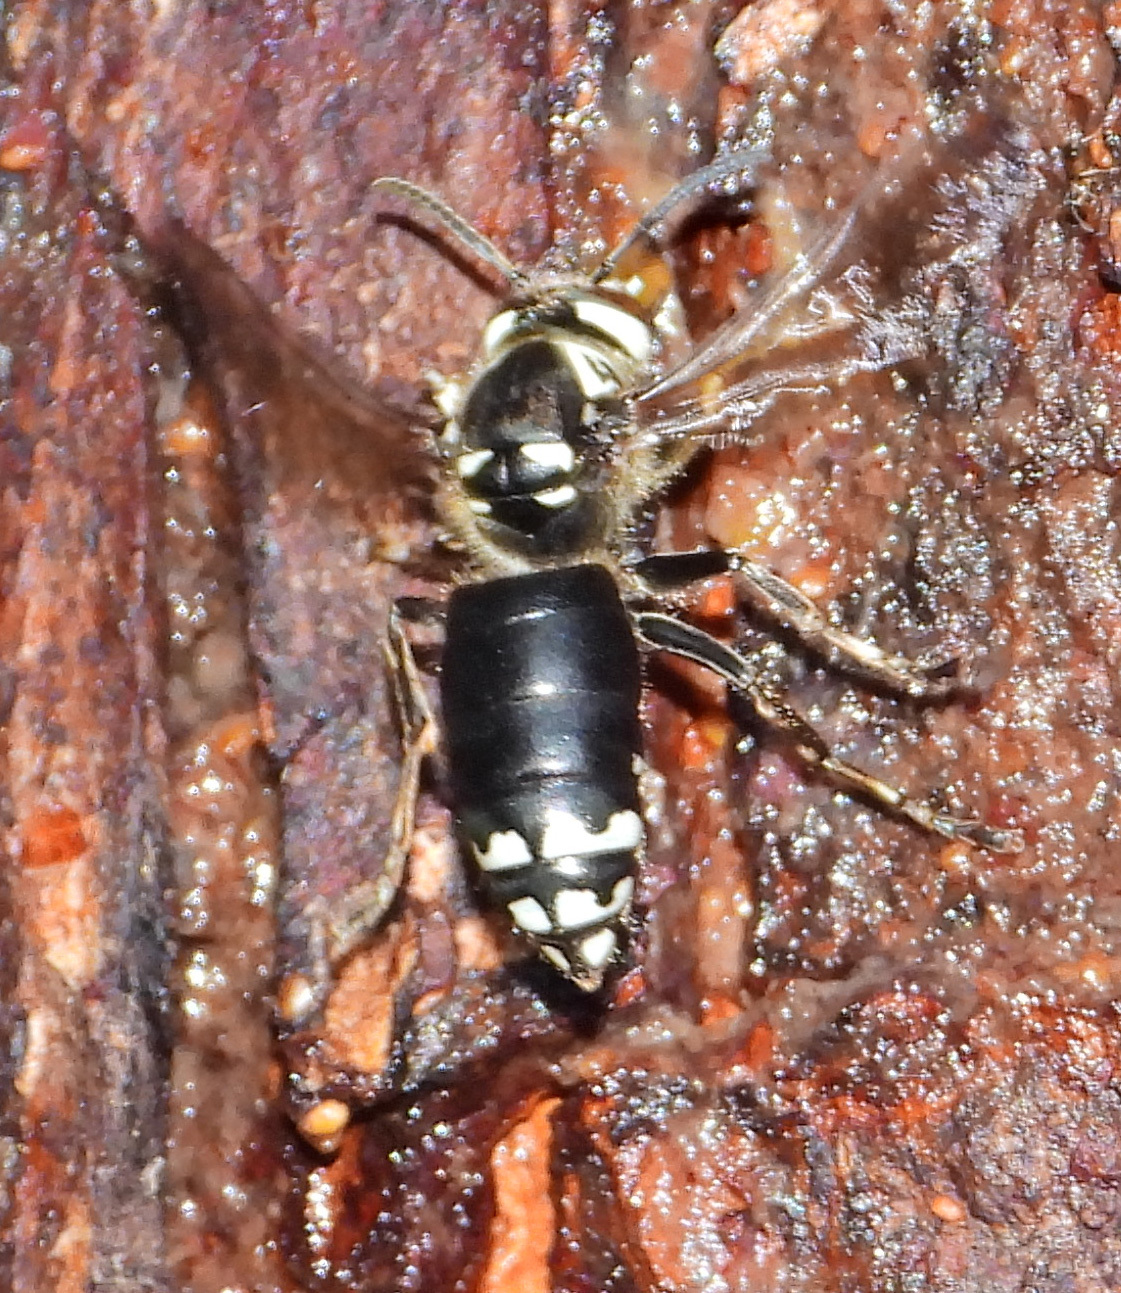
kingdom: Animalia
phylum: Arthropoda
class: Insecta
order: Hymenoptera
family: Vespidae
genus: Dolichovespula
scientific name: Dolichovespula maculata
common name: Bald-faced hornet
